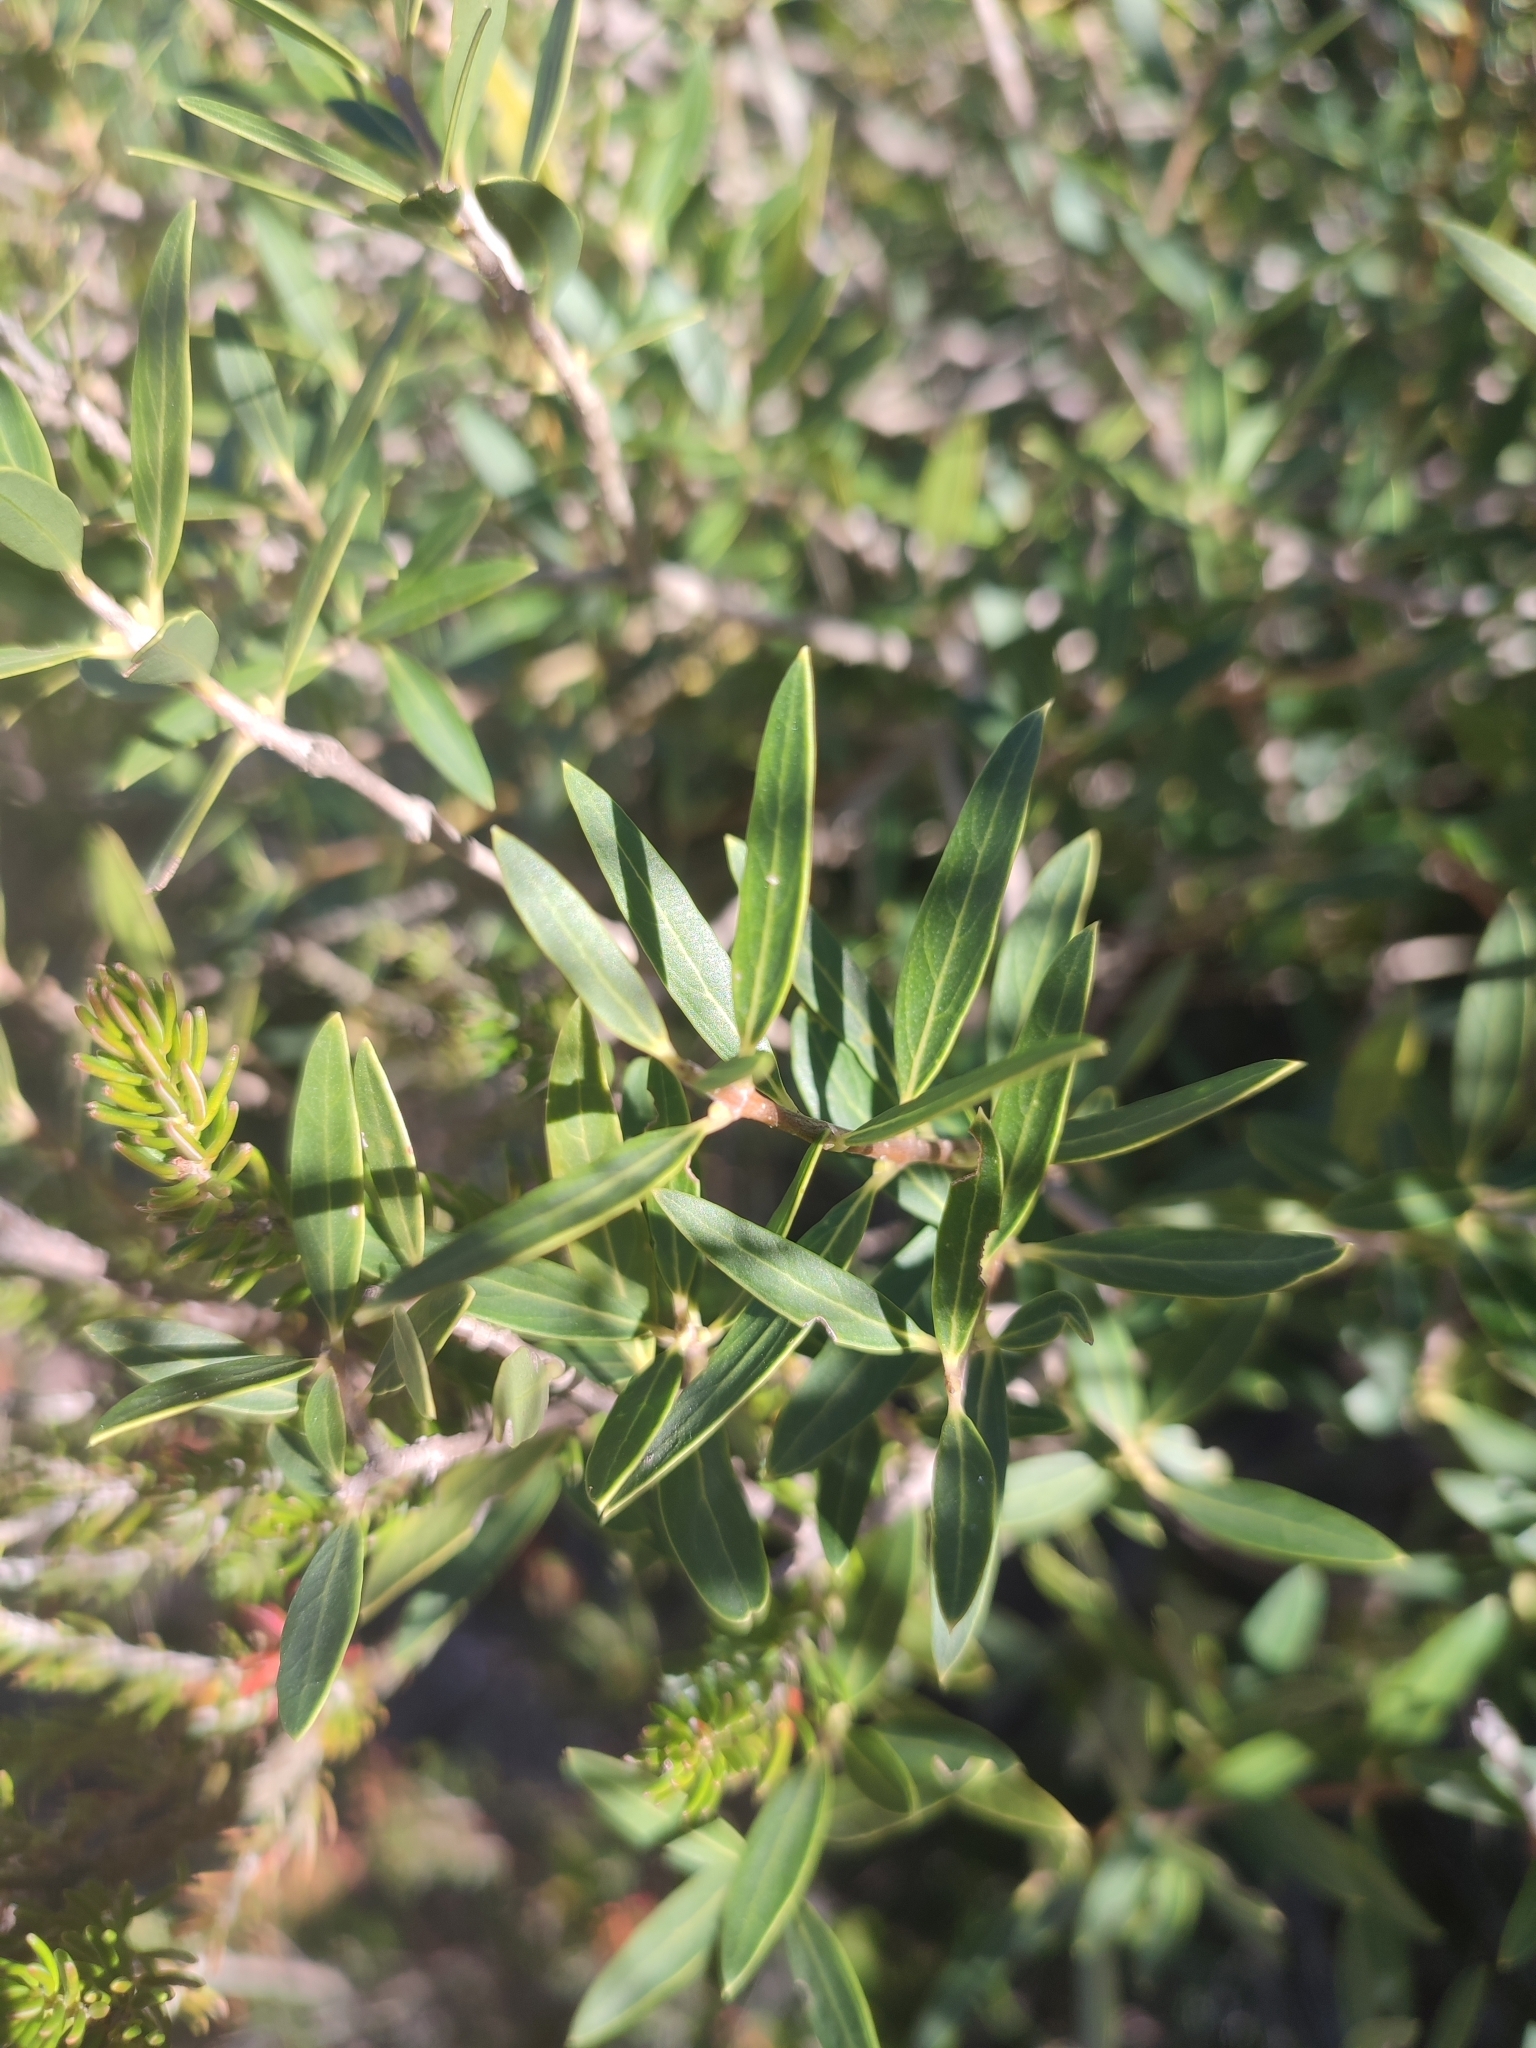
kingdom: Plantae
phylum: Tracheophyta
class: Magnoliopsida
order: Lamiales
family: Oleaceae
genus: Phillyrea
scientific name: Phillyrea angustifolia
